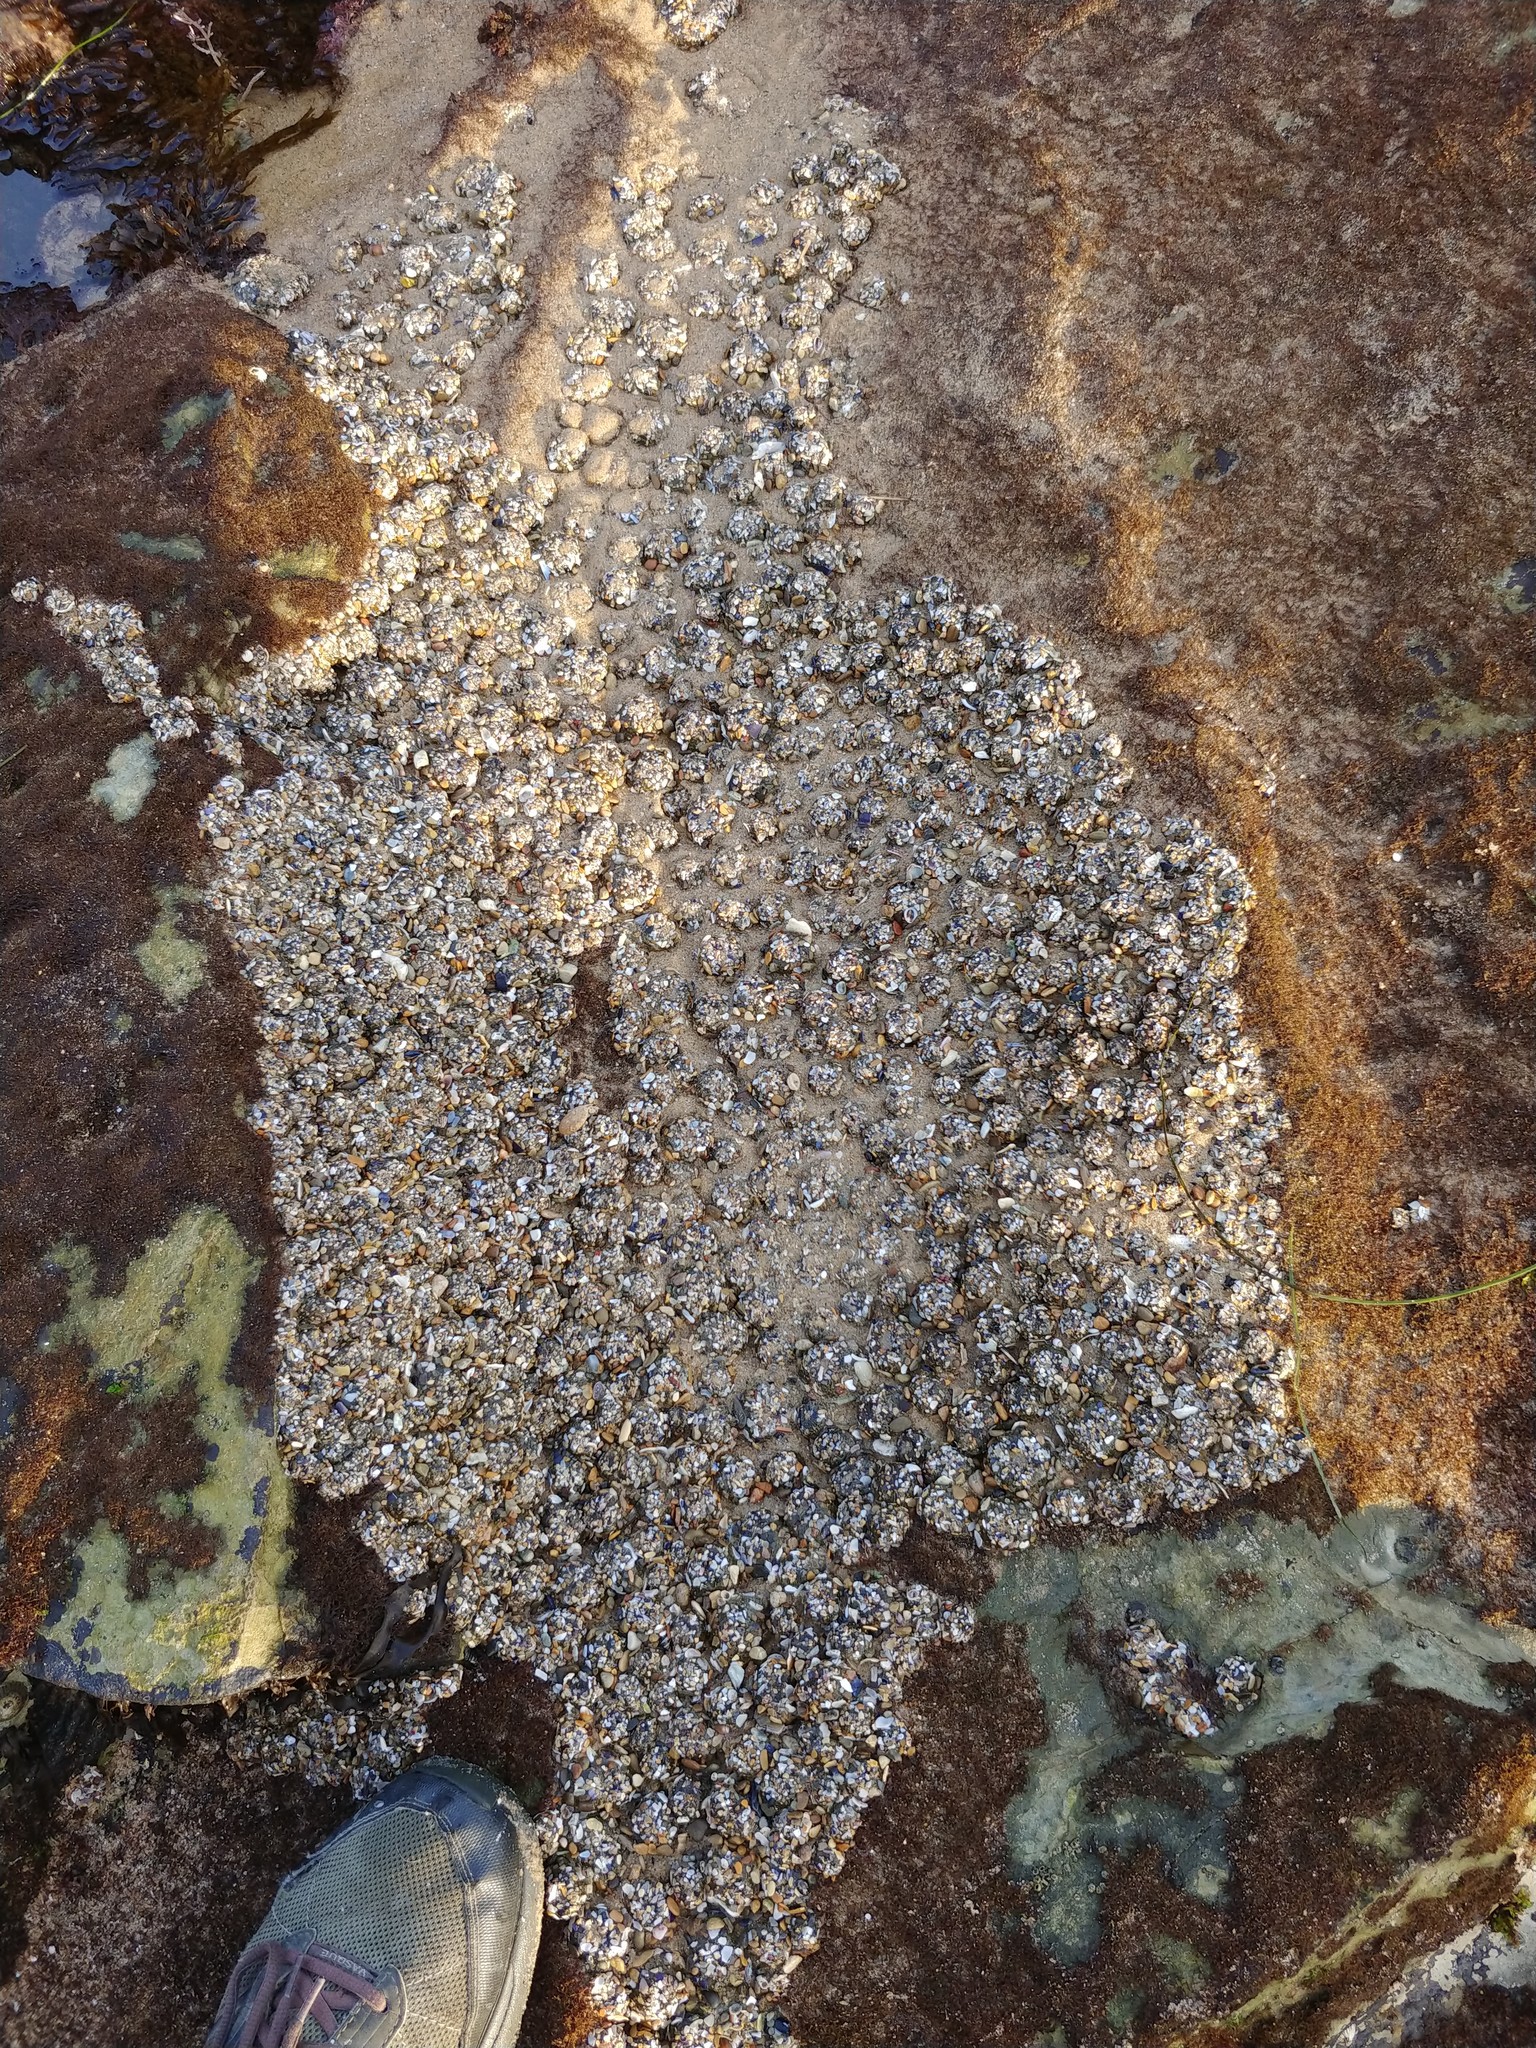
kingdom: Animalia
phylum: Cnidaria
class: Anthozoa
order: Actiniaria
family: Actiniidae
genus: Anthopleura
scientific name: Anthopleura elegantissima
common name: Clonal anemone
